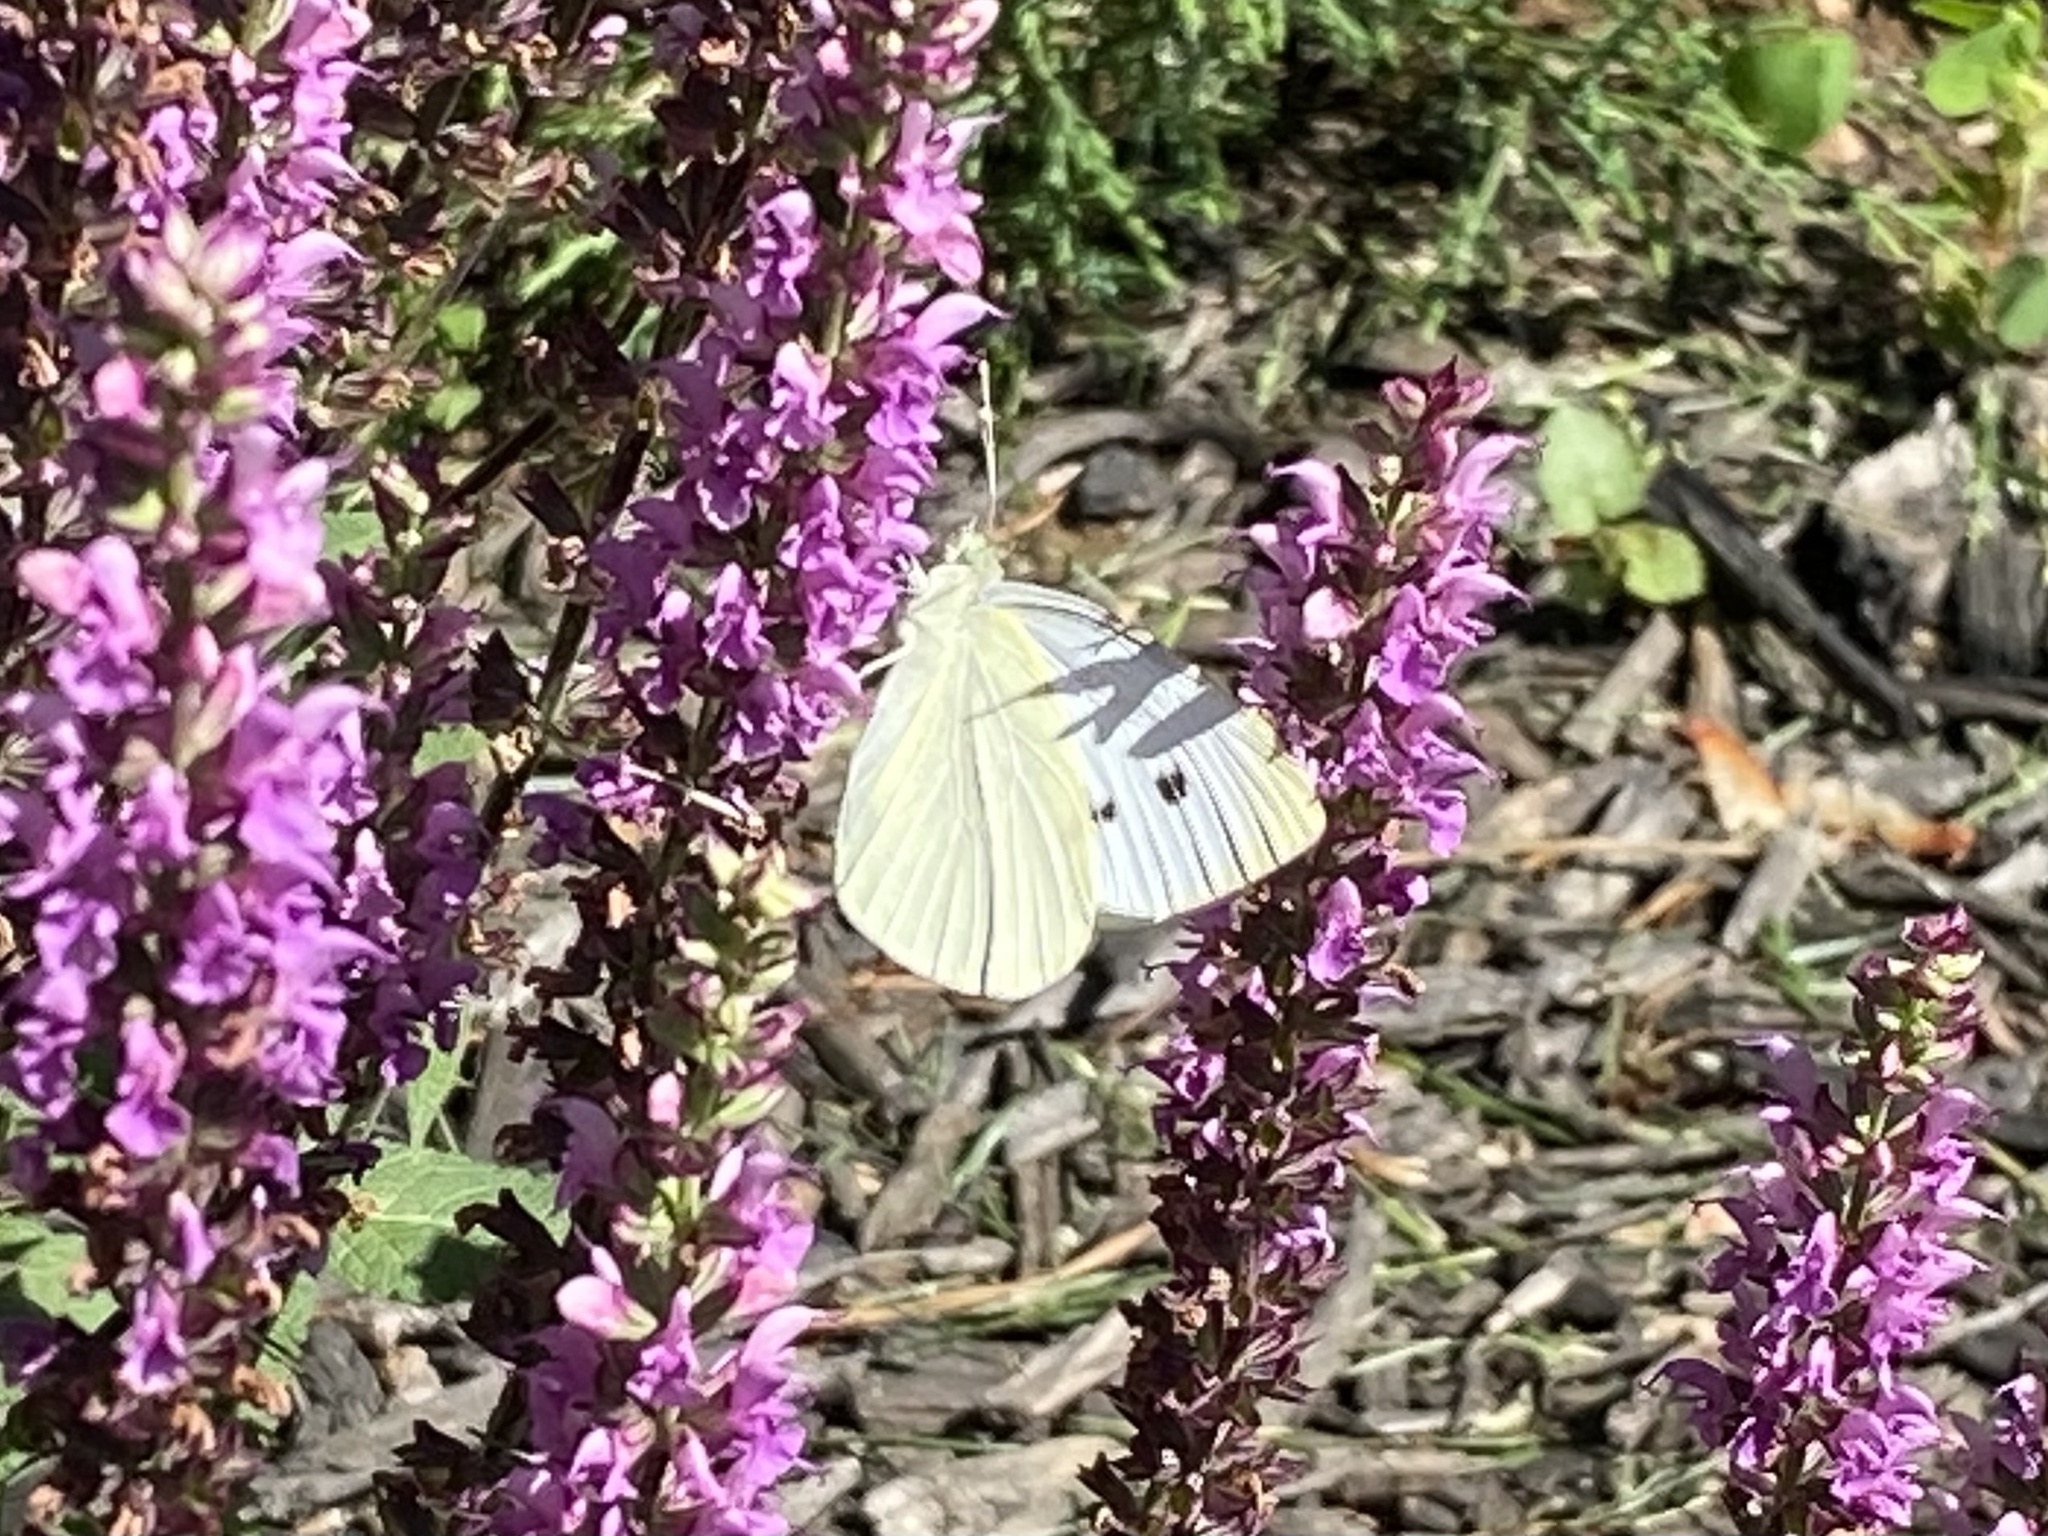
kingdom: Animalia
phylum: Arthropoda
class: Insecta
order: Lepidoptera
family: Pieridae
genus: Pieris
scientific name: Pieris rapae
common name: Small white
